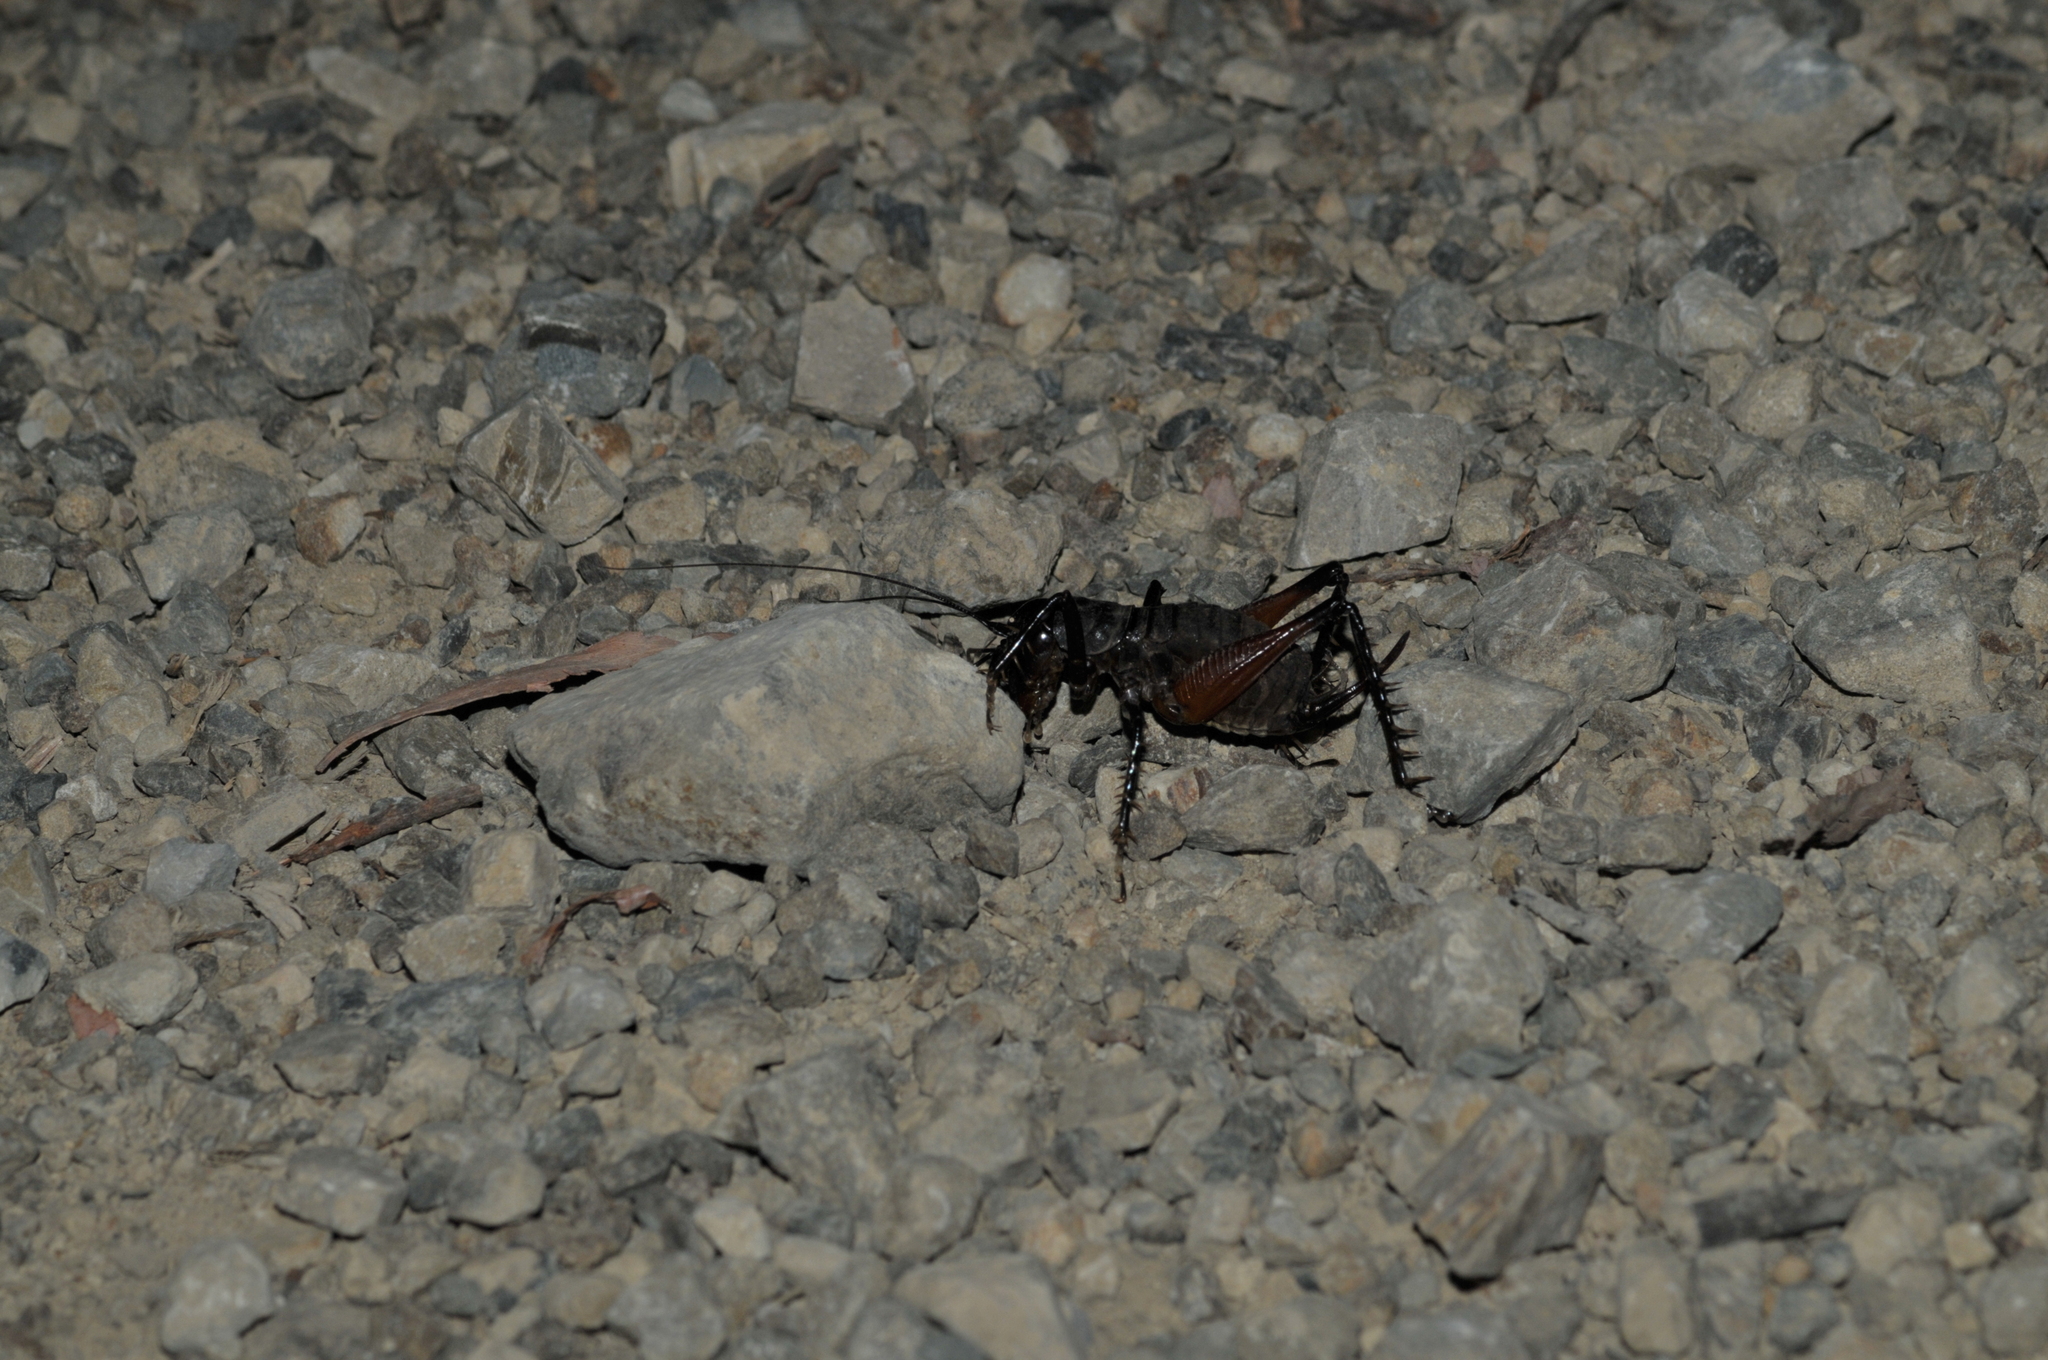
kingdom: Animalia
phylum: Arthropoda
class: Insecta
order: Orthoptera
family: Anostostomatidae
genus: Anostostoma
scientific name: Anostostoma opacum
